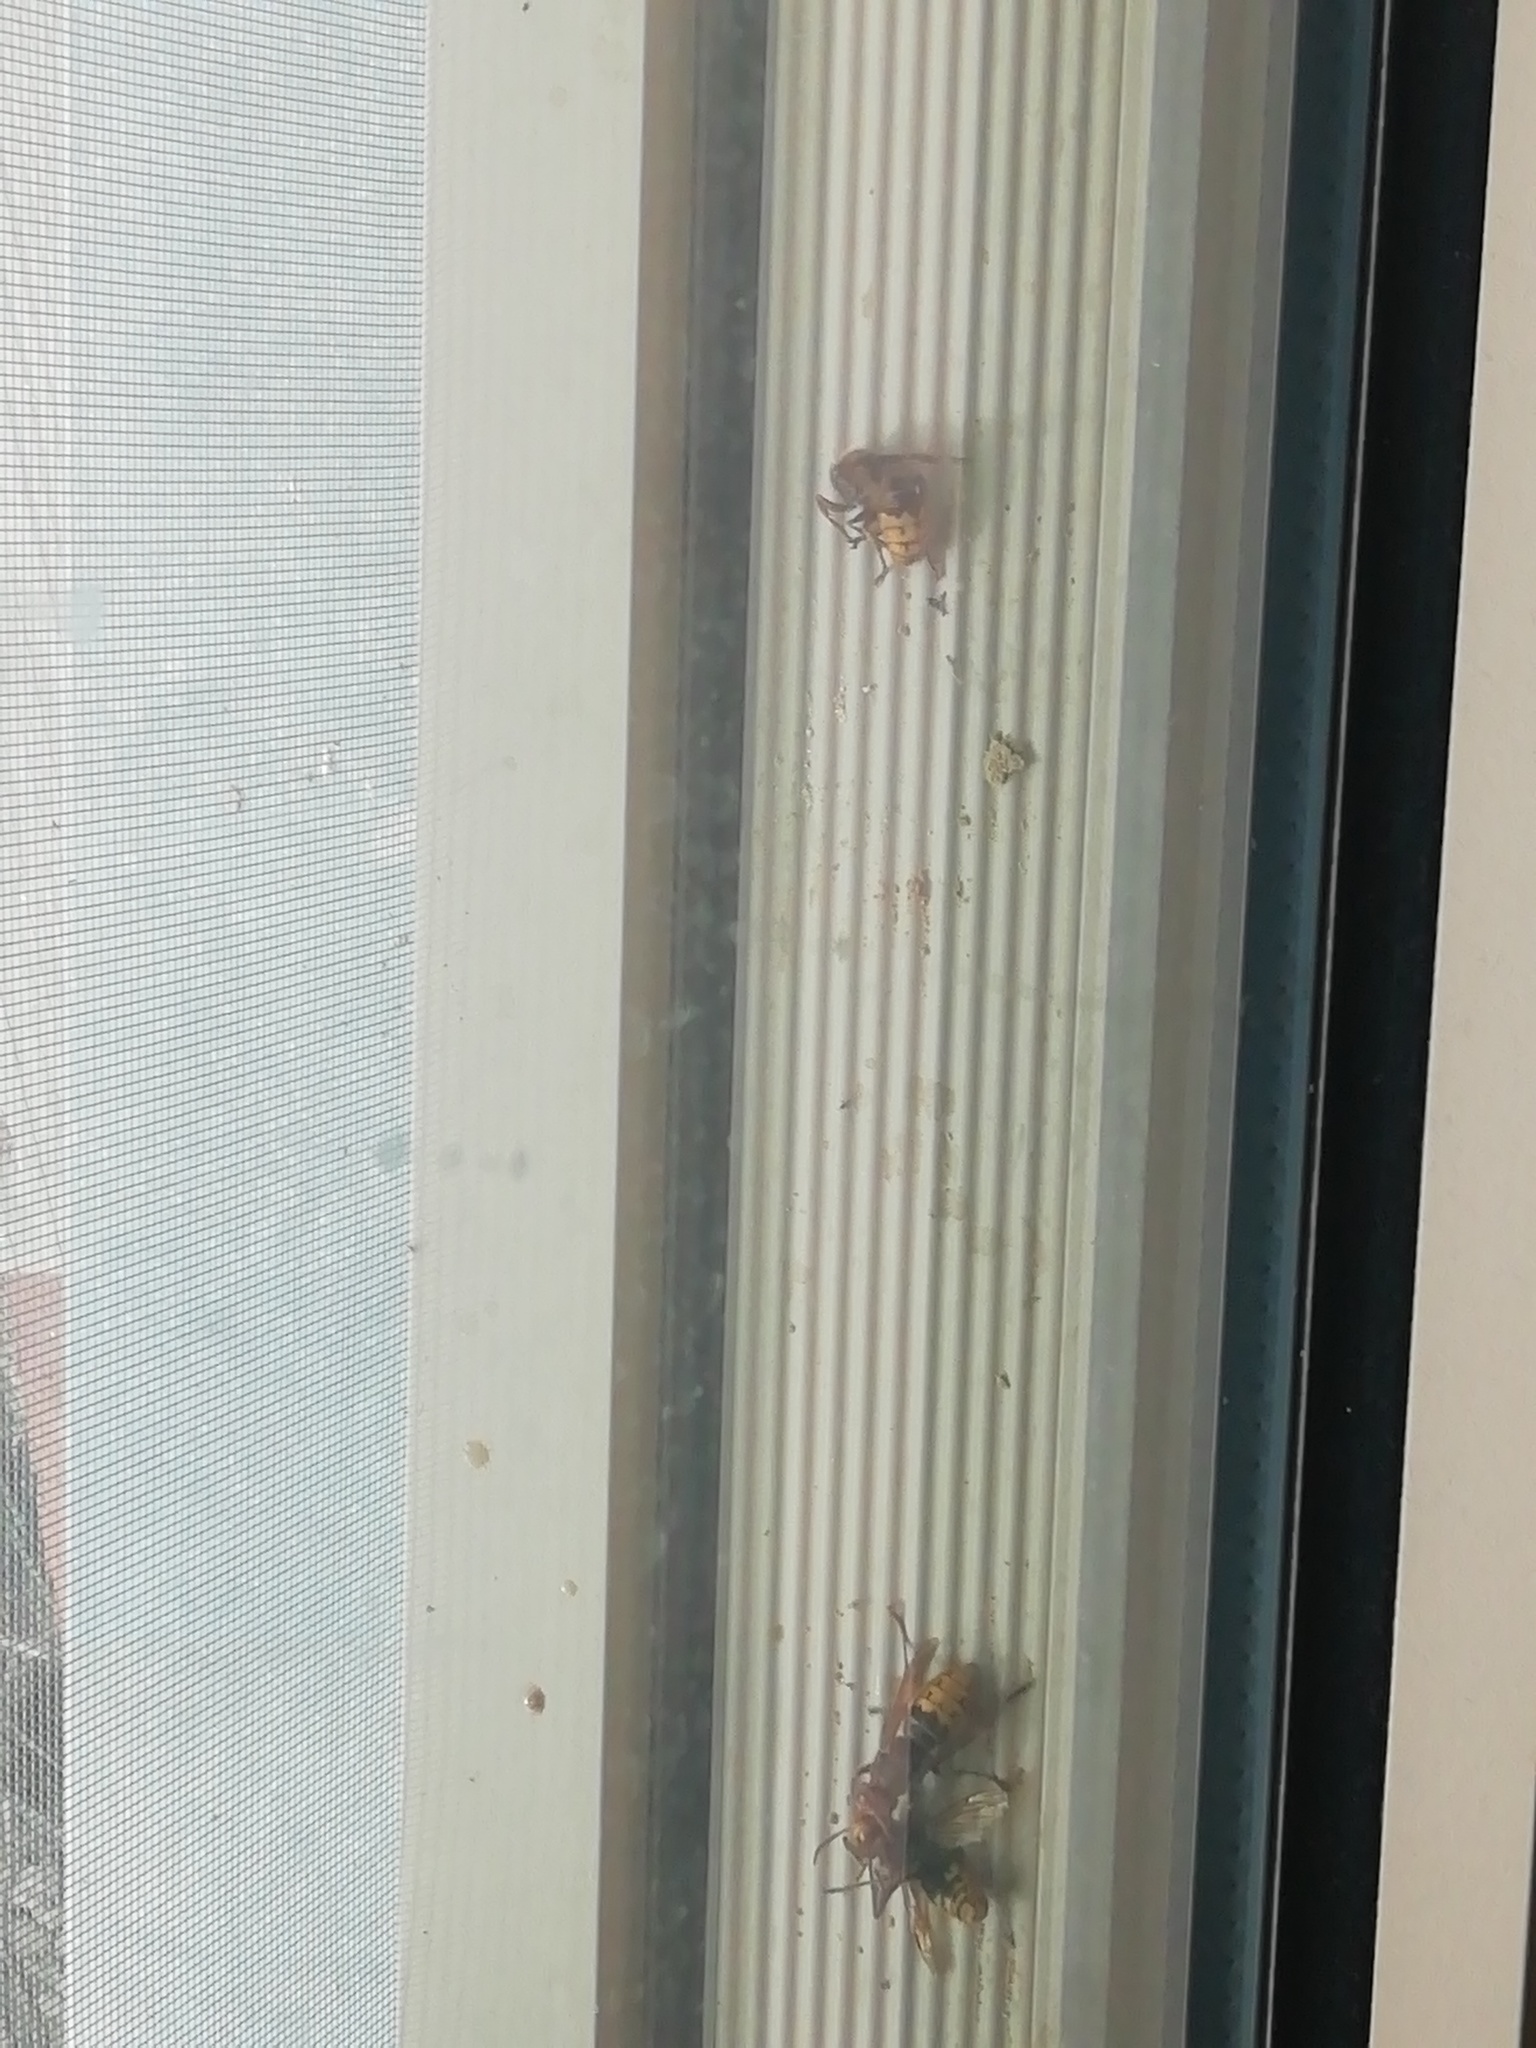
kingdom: Animalia
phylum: Arthropoda
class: Insecta
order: Hymenoptera
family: Vespidae
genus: Vespa
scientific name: Vespa crabro
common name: Hornet
